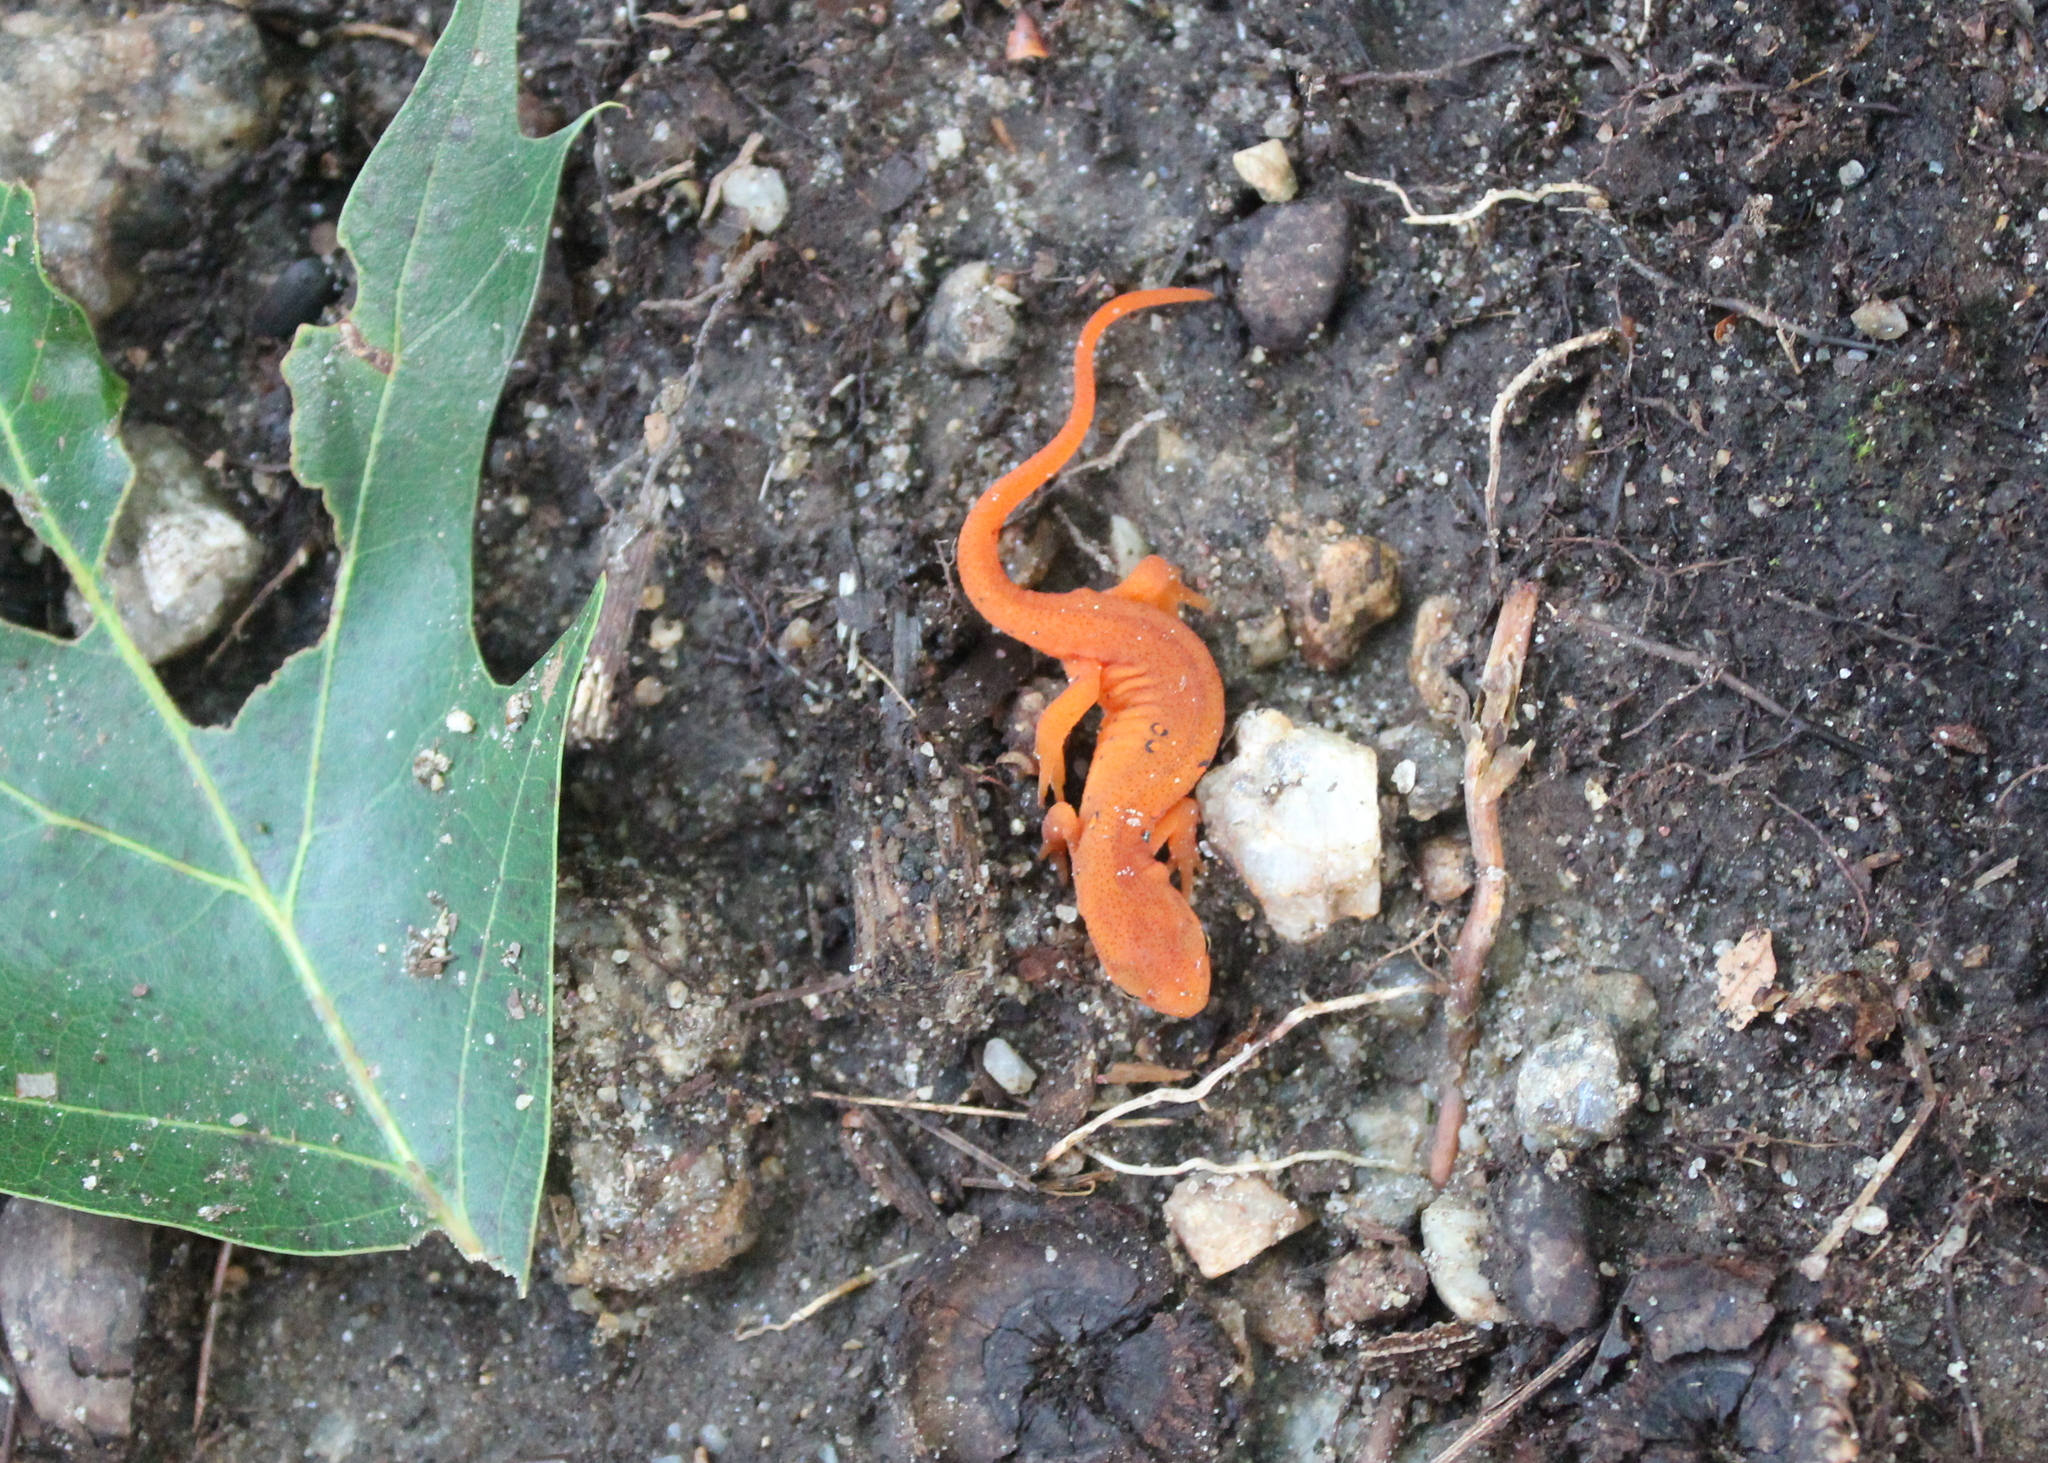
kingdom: Animalia
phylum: Chordata
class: Amphibia
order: Caudata
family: Salamandridae
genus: Notophthalmus
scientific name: Notophthalmus viridescens
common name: Eastern newt
